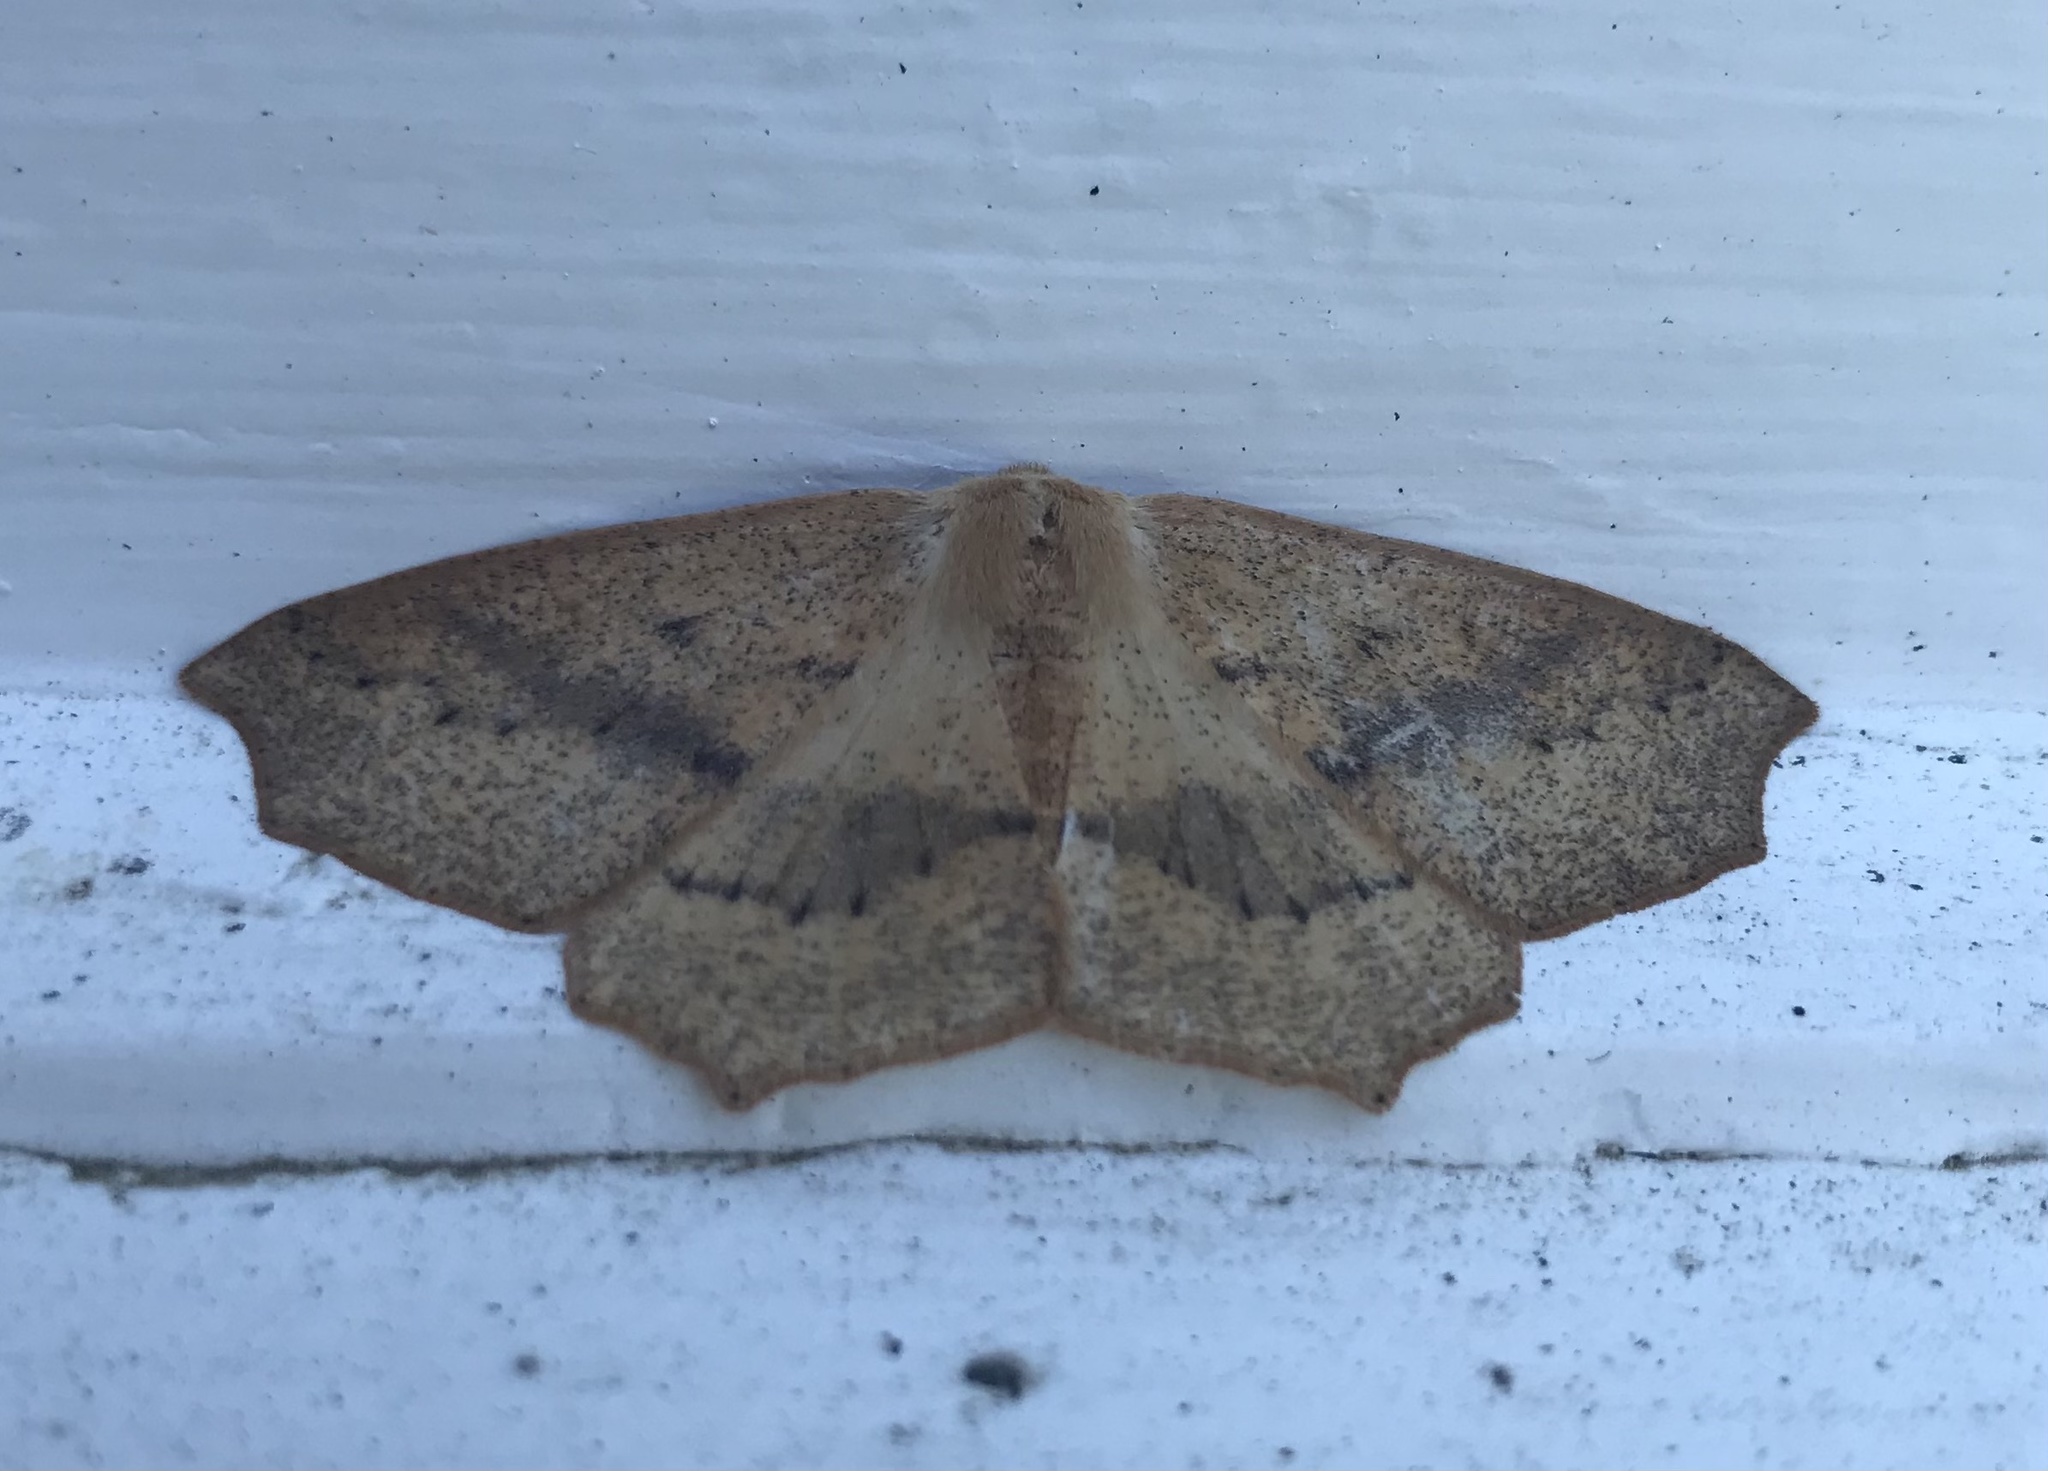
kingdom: Animalia
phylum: Arthropoda
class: Insecta
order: Lepidoptera
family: Geometridae
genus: Sabulodes
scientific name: Sabulodes aegrotata
